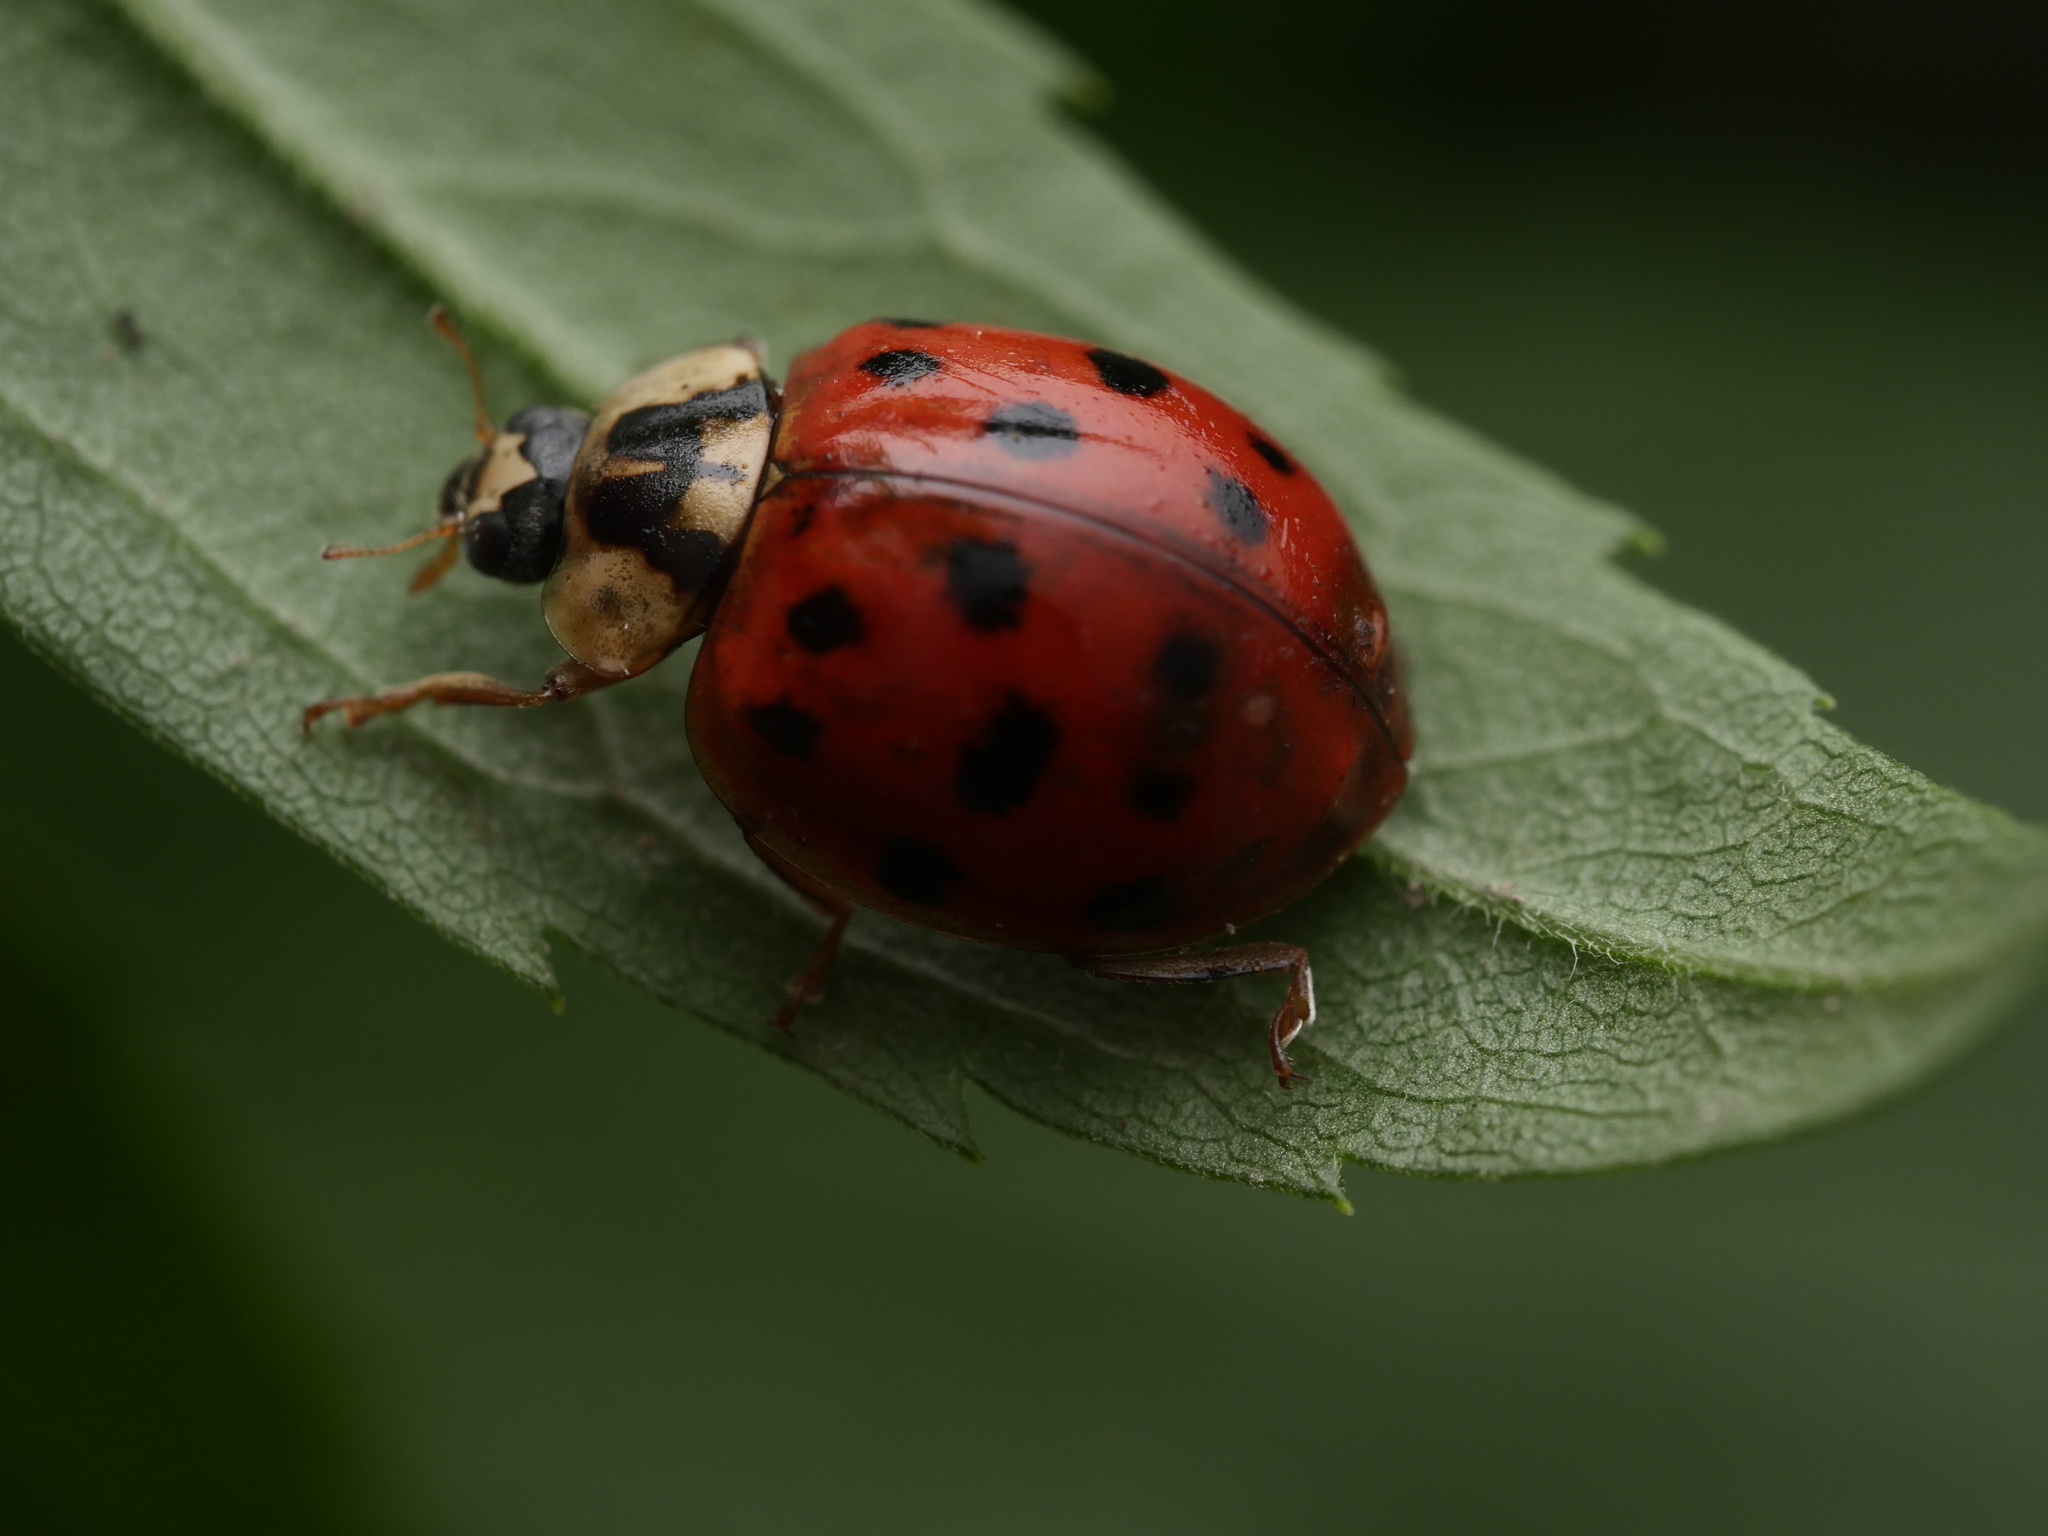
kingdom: Animalia
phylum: Arthropoda
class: Insecta
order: Coleoptera
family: Coccinellidae
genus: Harmonia
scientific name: Harmonia axyridis
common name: Harlequin ladybird
